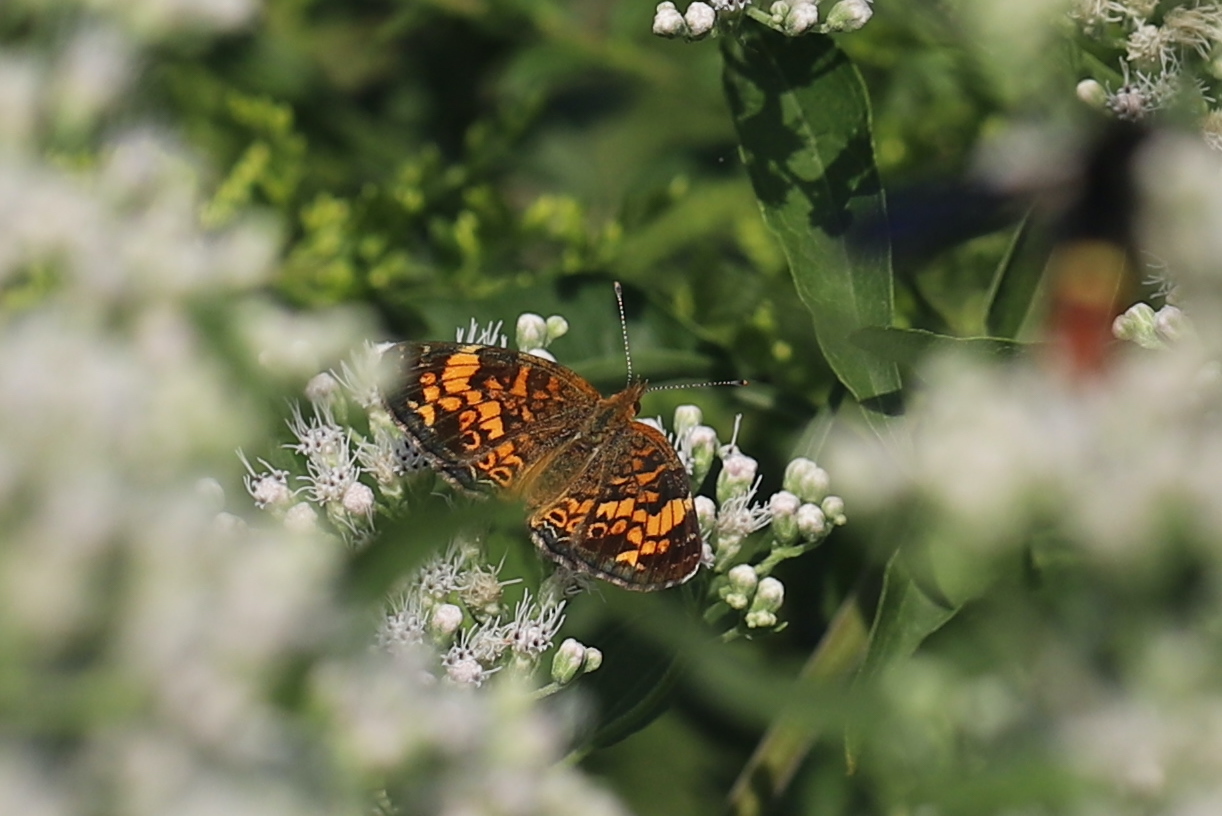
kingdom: Animalia
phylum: Arthropoda
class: Insecta
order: Lepidoptera
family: Nymphalidae
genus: Phyciodes
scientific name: Phyciodes tharos
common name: Pearl crescent
